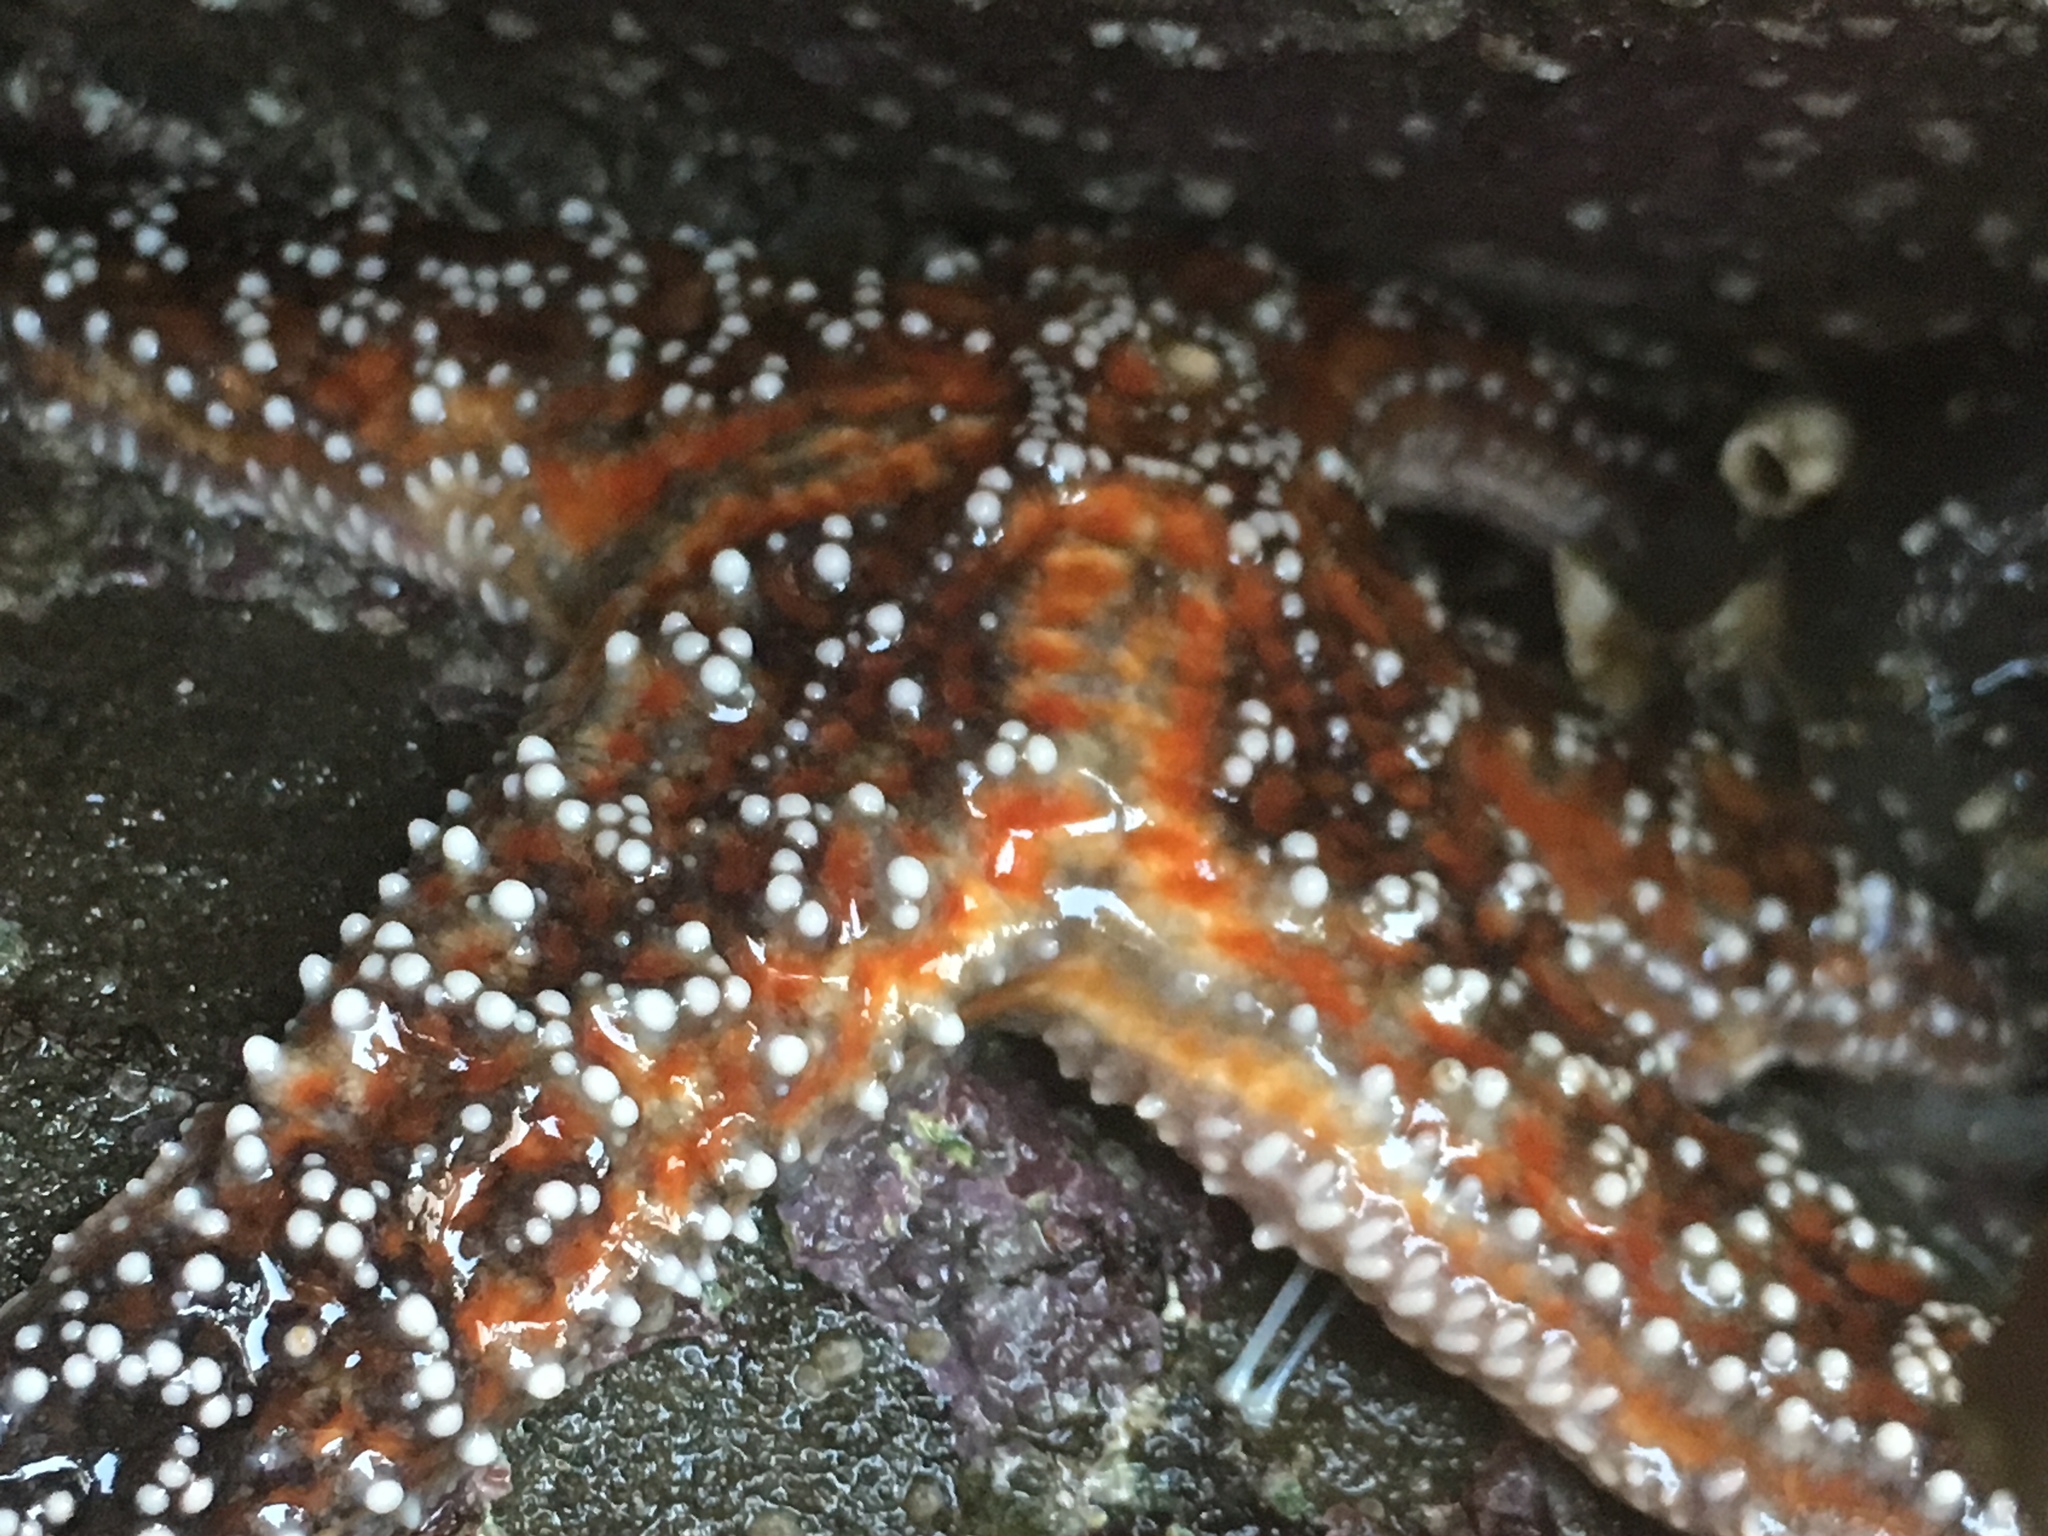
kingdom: Animalia
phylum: Echinodermata
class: Asteroidea
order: Forcipulatida
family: Asteriidae
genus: Pisaster
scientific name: Pisaster ochraceus
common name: Ochre stars
